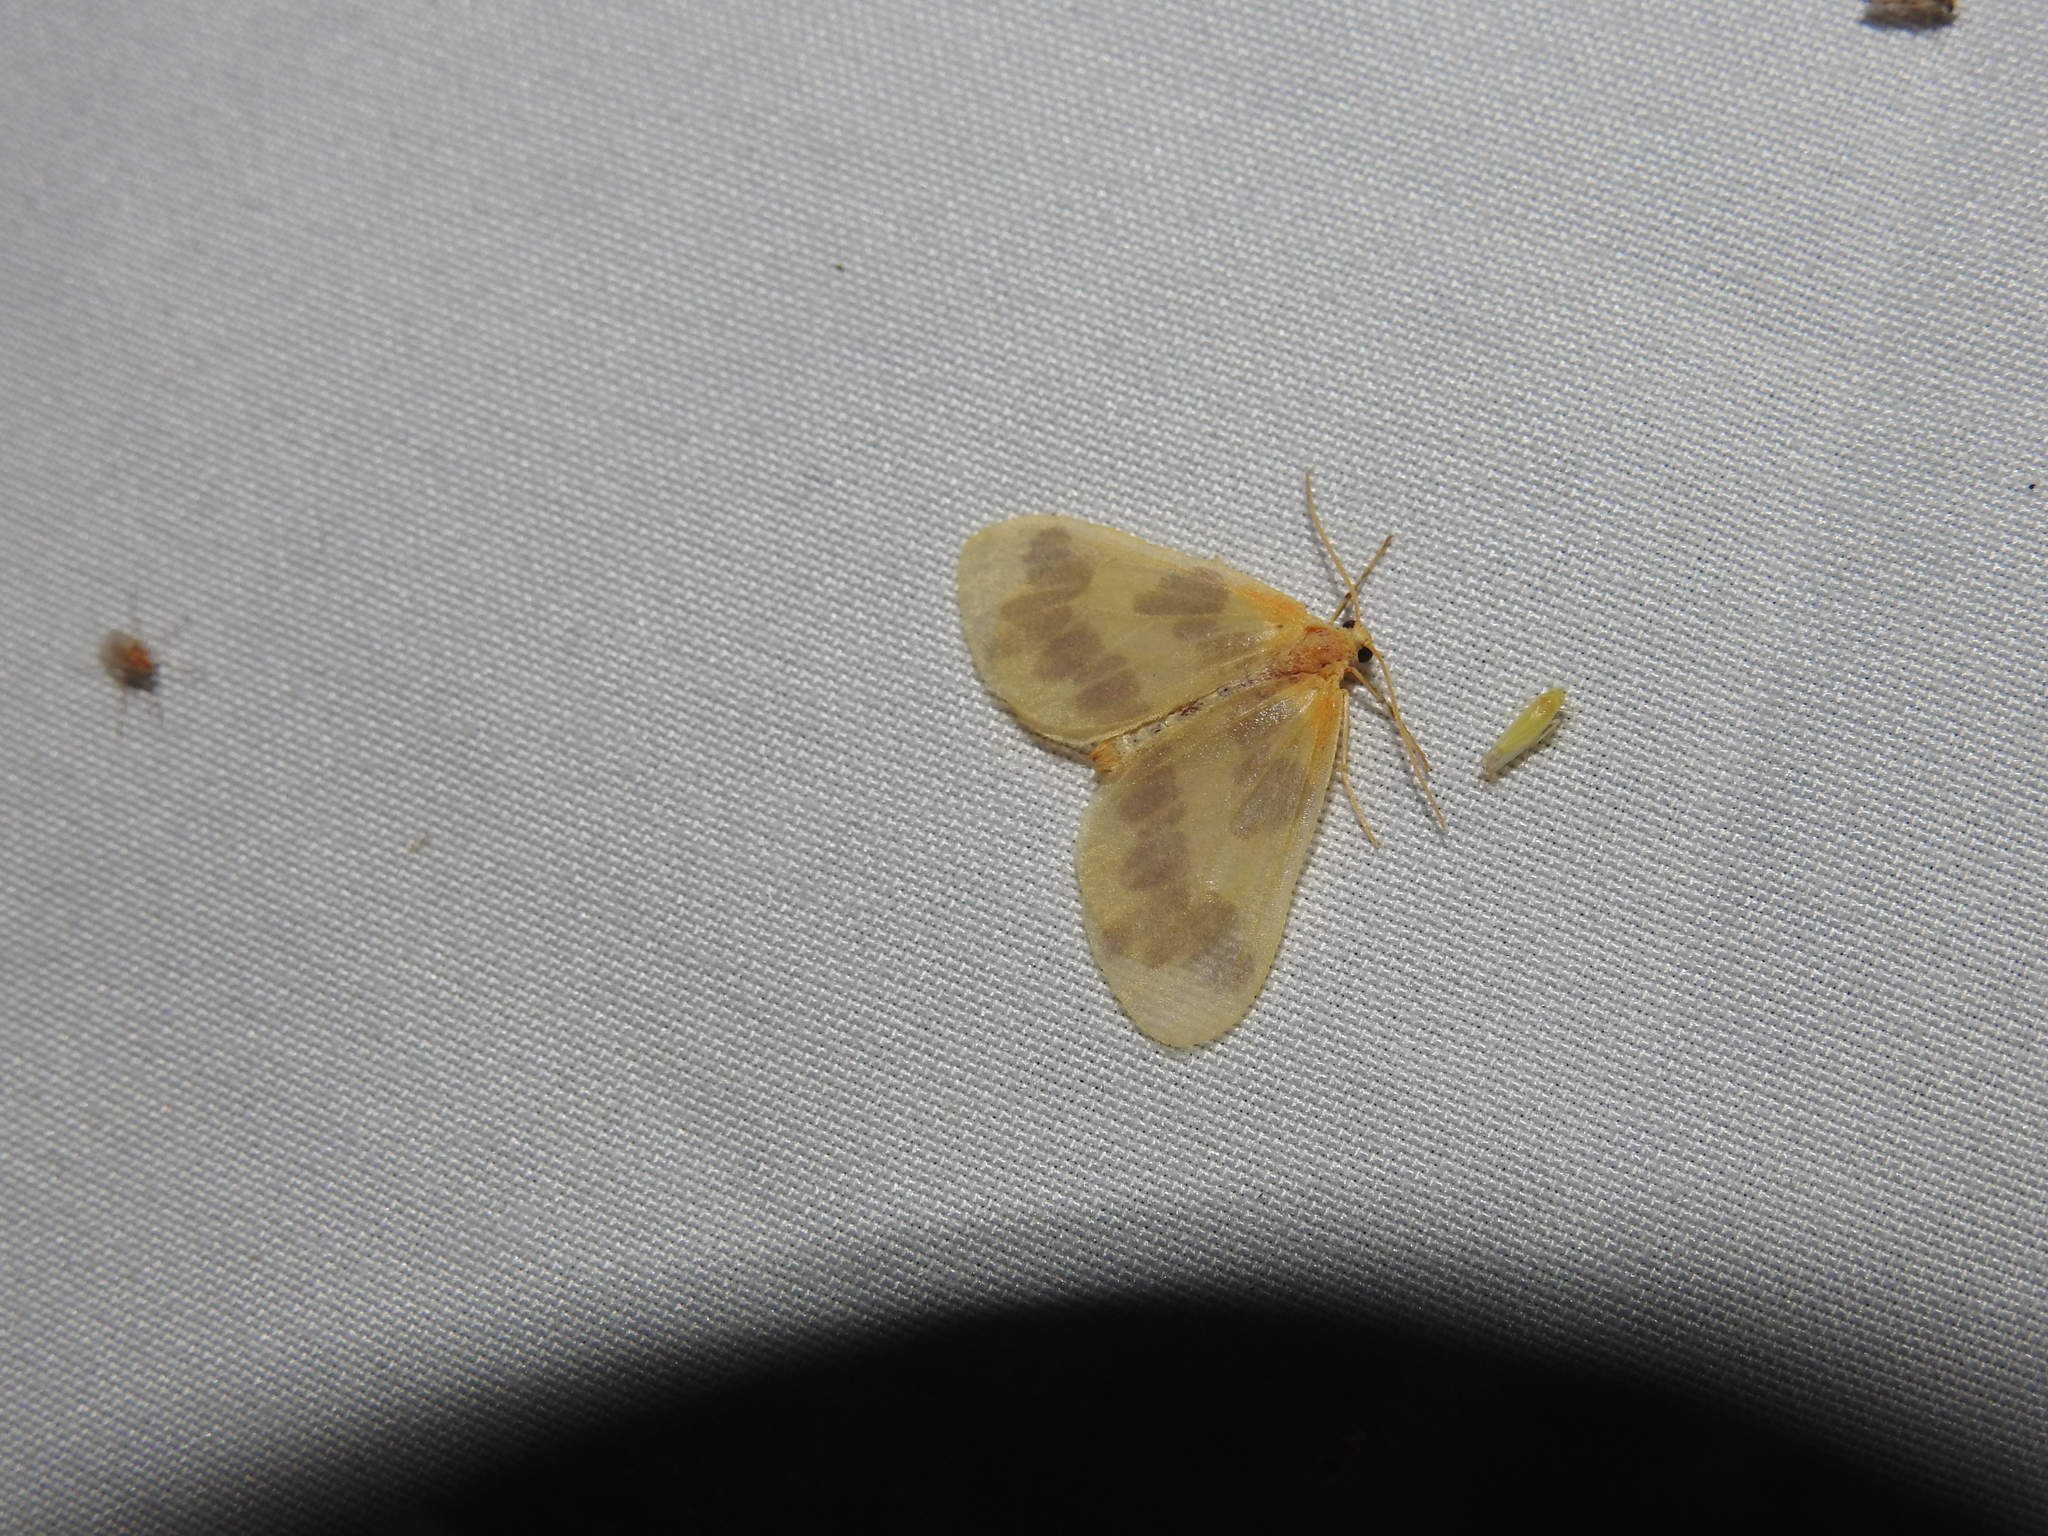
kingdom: Animalia
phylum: Arthropoda
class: Insecta
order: Lepidoptera
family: Geometridae
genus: Eubaphe
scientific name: Eubaphe mendica
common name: Beggar
